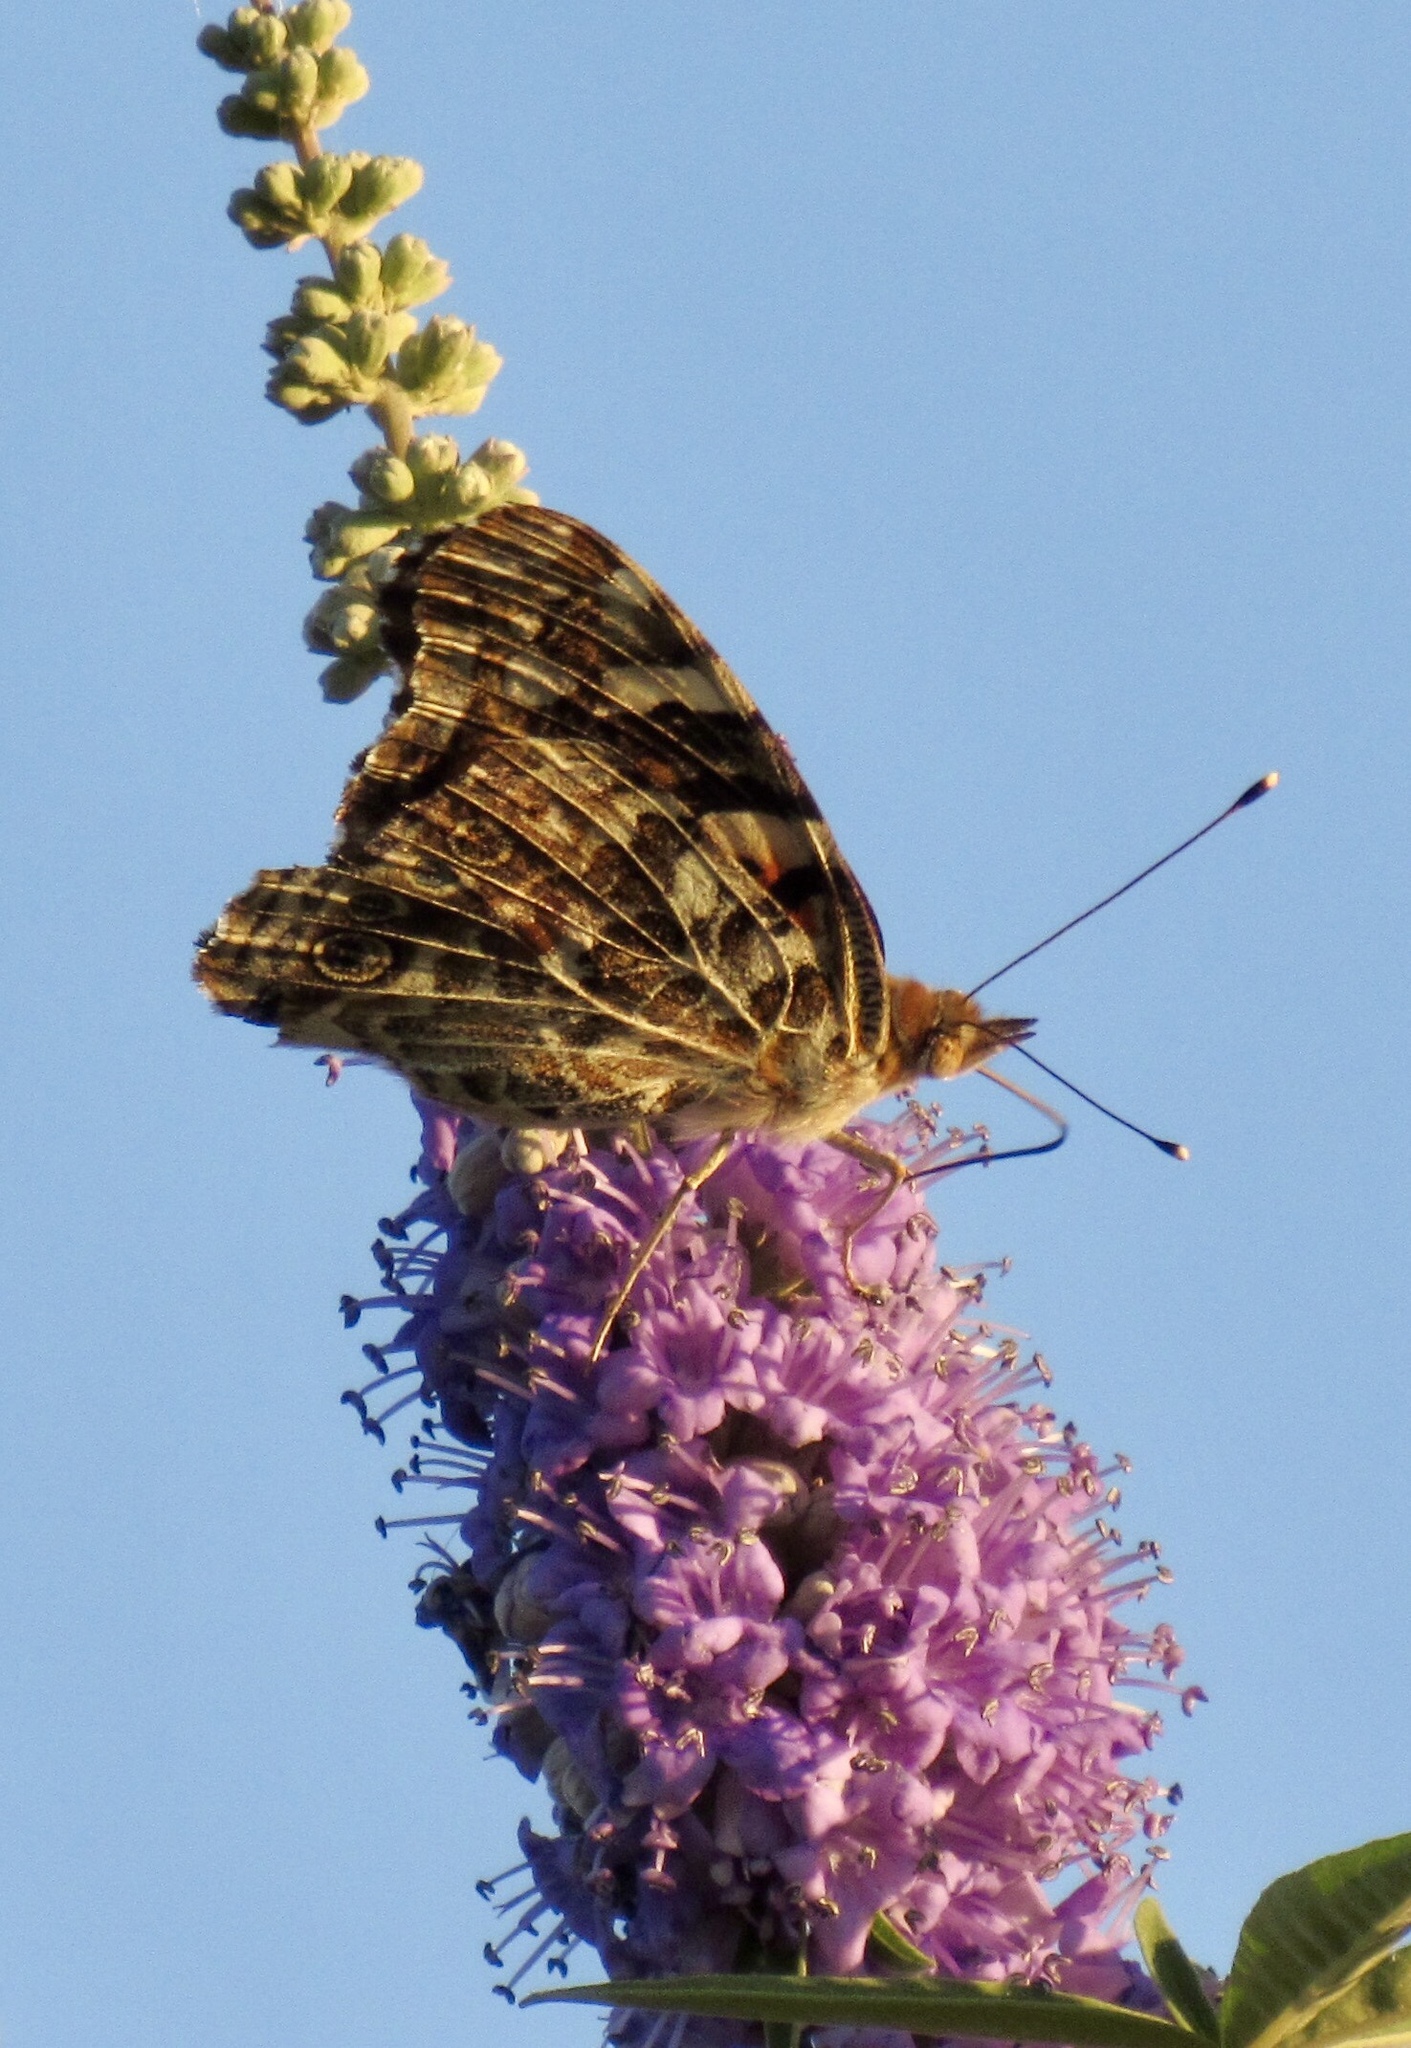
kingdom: Animalia
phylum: Arthropoda
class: Insecta
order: Lepidoptera
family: Nymphalidae
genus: Vanessa
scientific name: Vanessa cardui
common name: Painted lady
